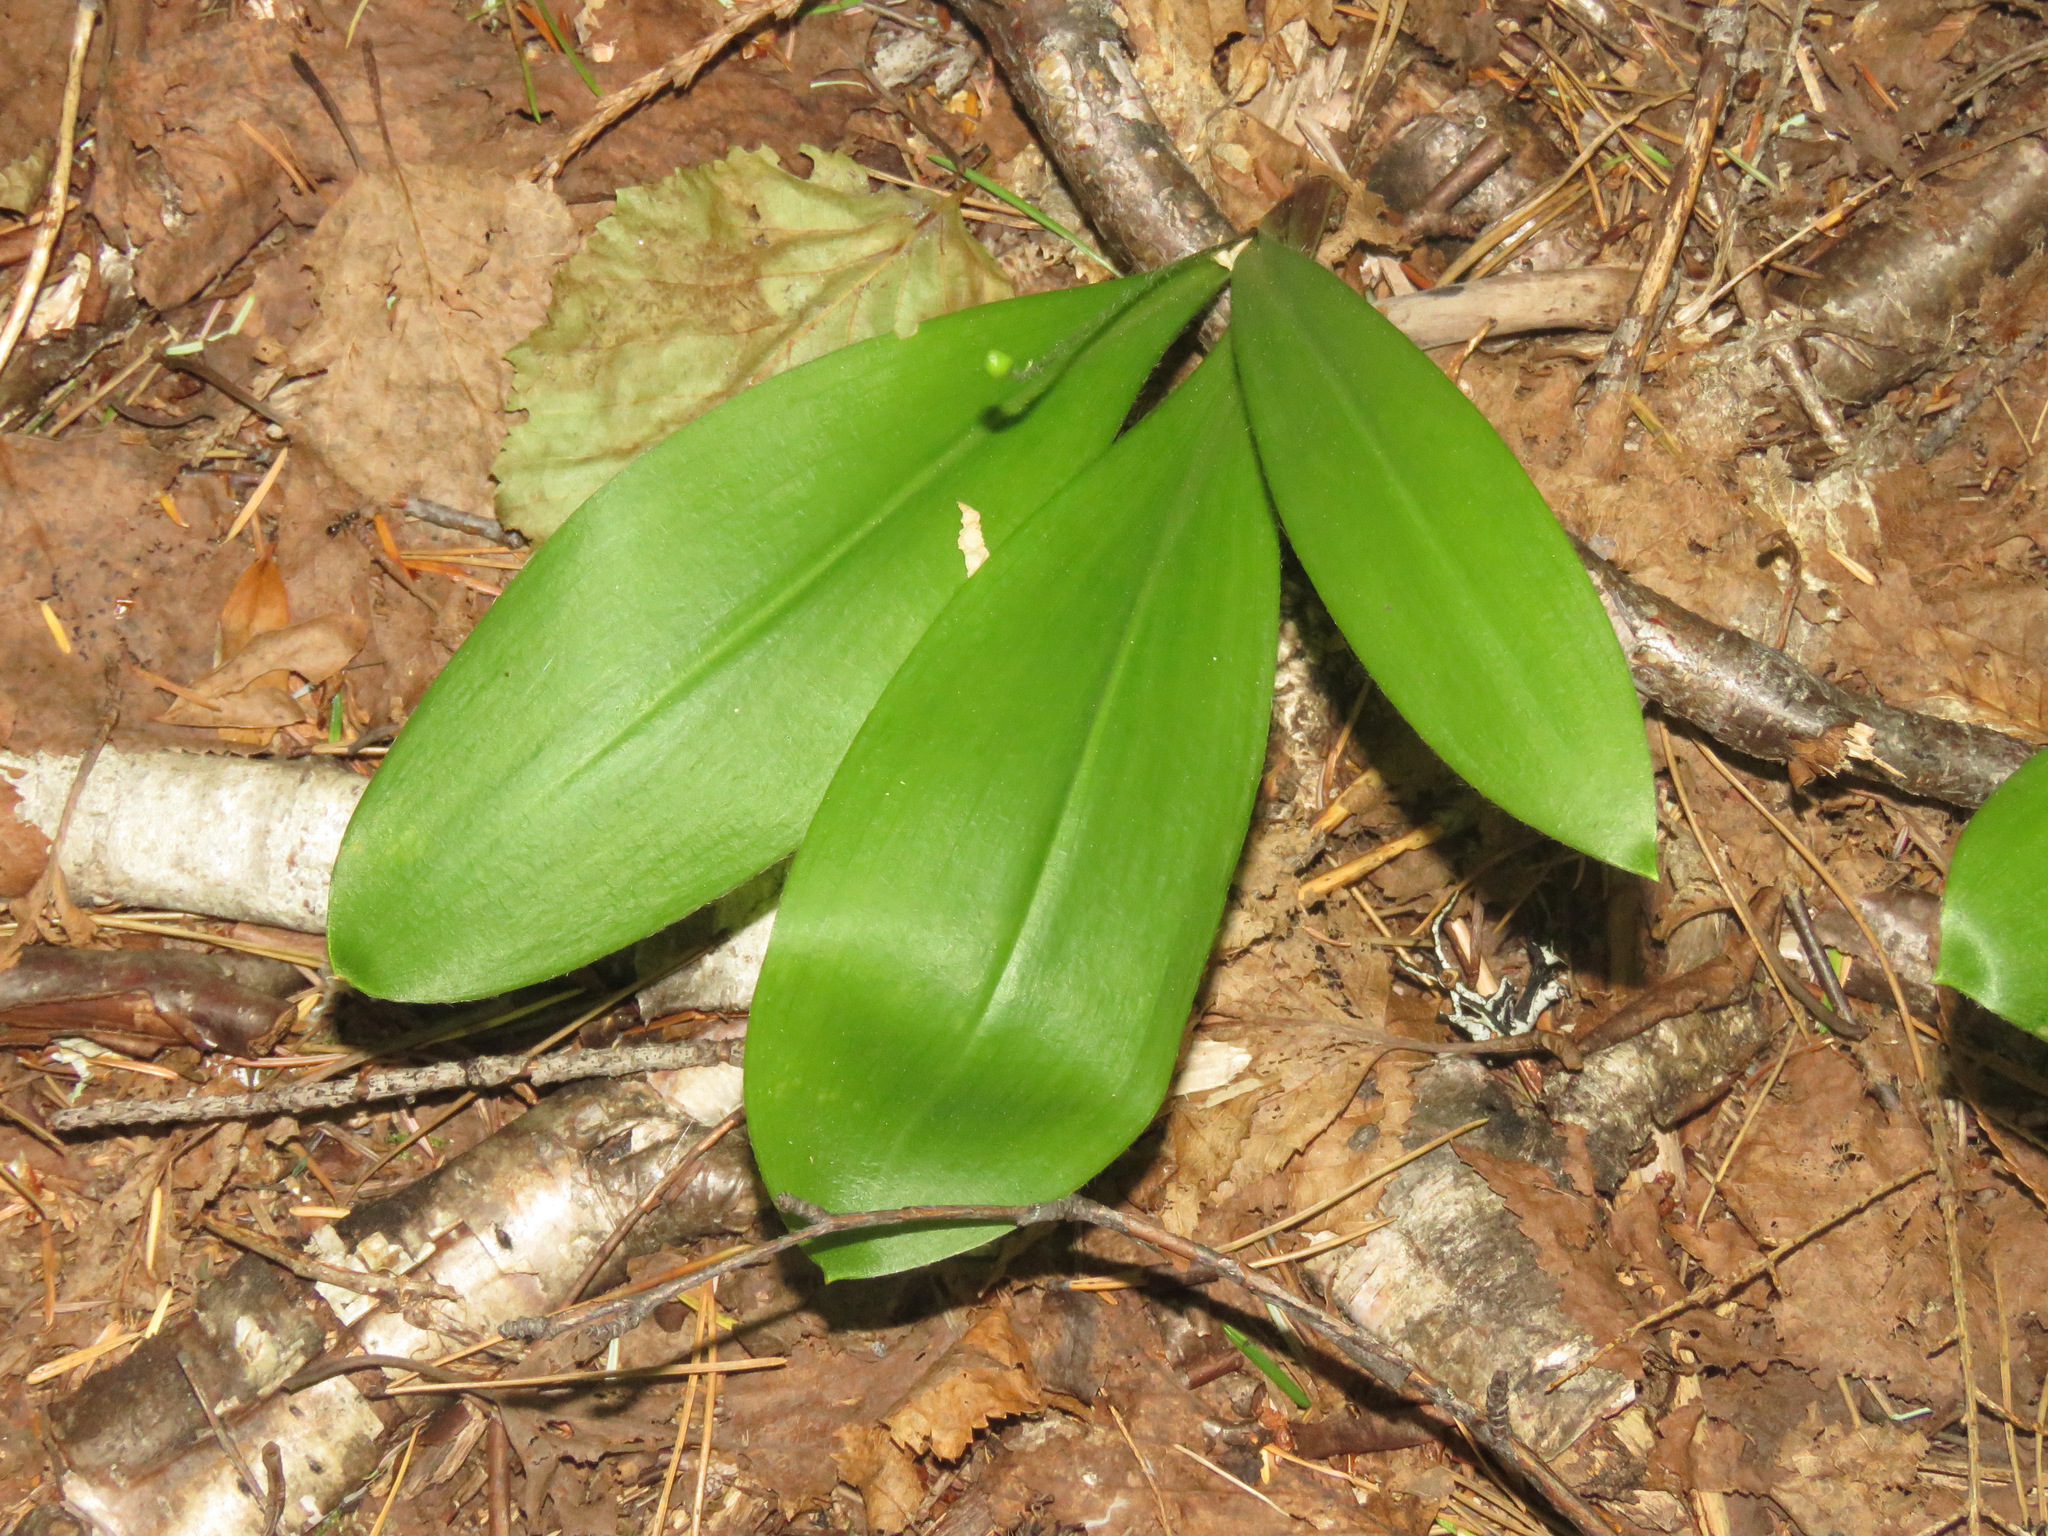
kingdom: Plantae
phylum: Tracheophyta
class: Liliopsida
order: Liliales
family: Liliaceae
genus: Clintonia
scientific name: Clintonia uniflora
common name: Queen's cup
